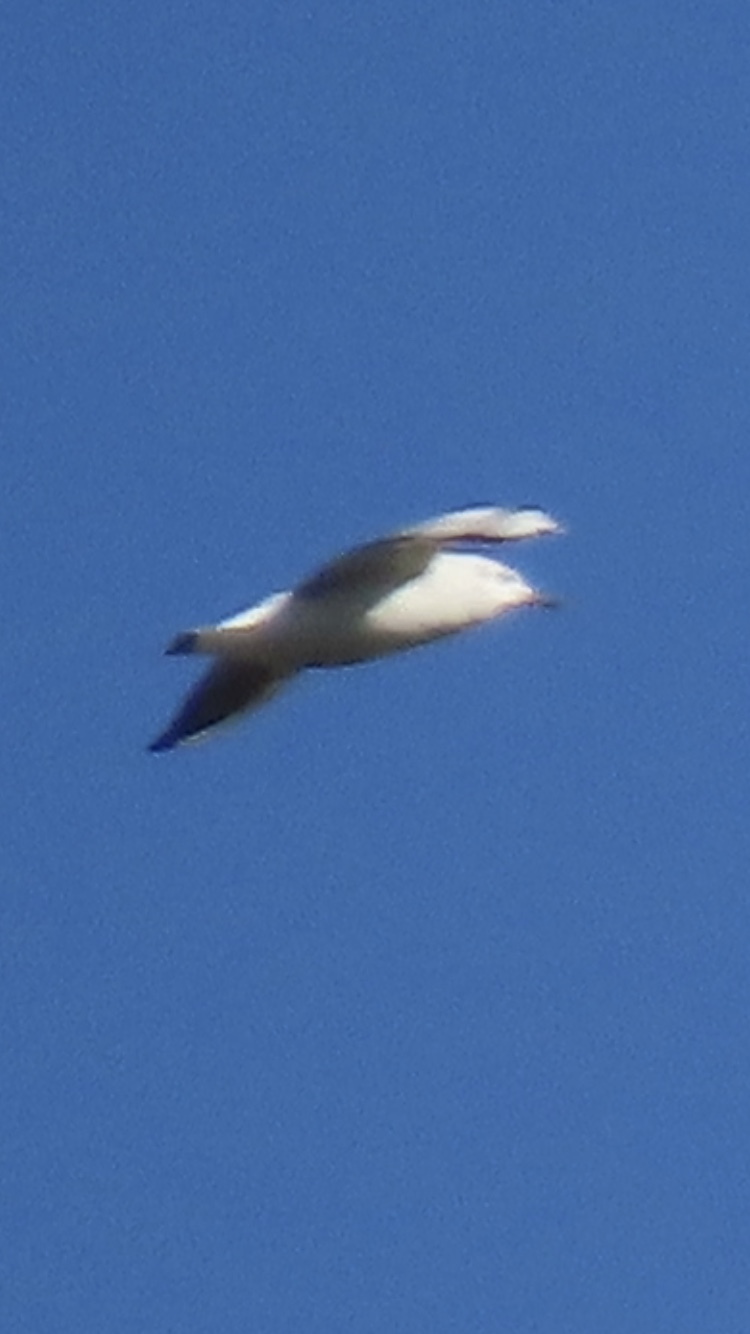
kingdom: Animalia
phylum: Chordata
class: Aves
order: Charadriiformes
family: Laridae
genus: Chroicocephalus
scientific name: Chroicocephalus ridibundus
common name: Black-headed gull
